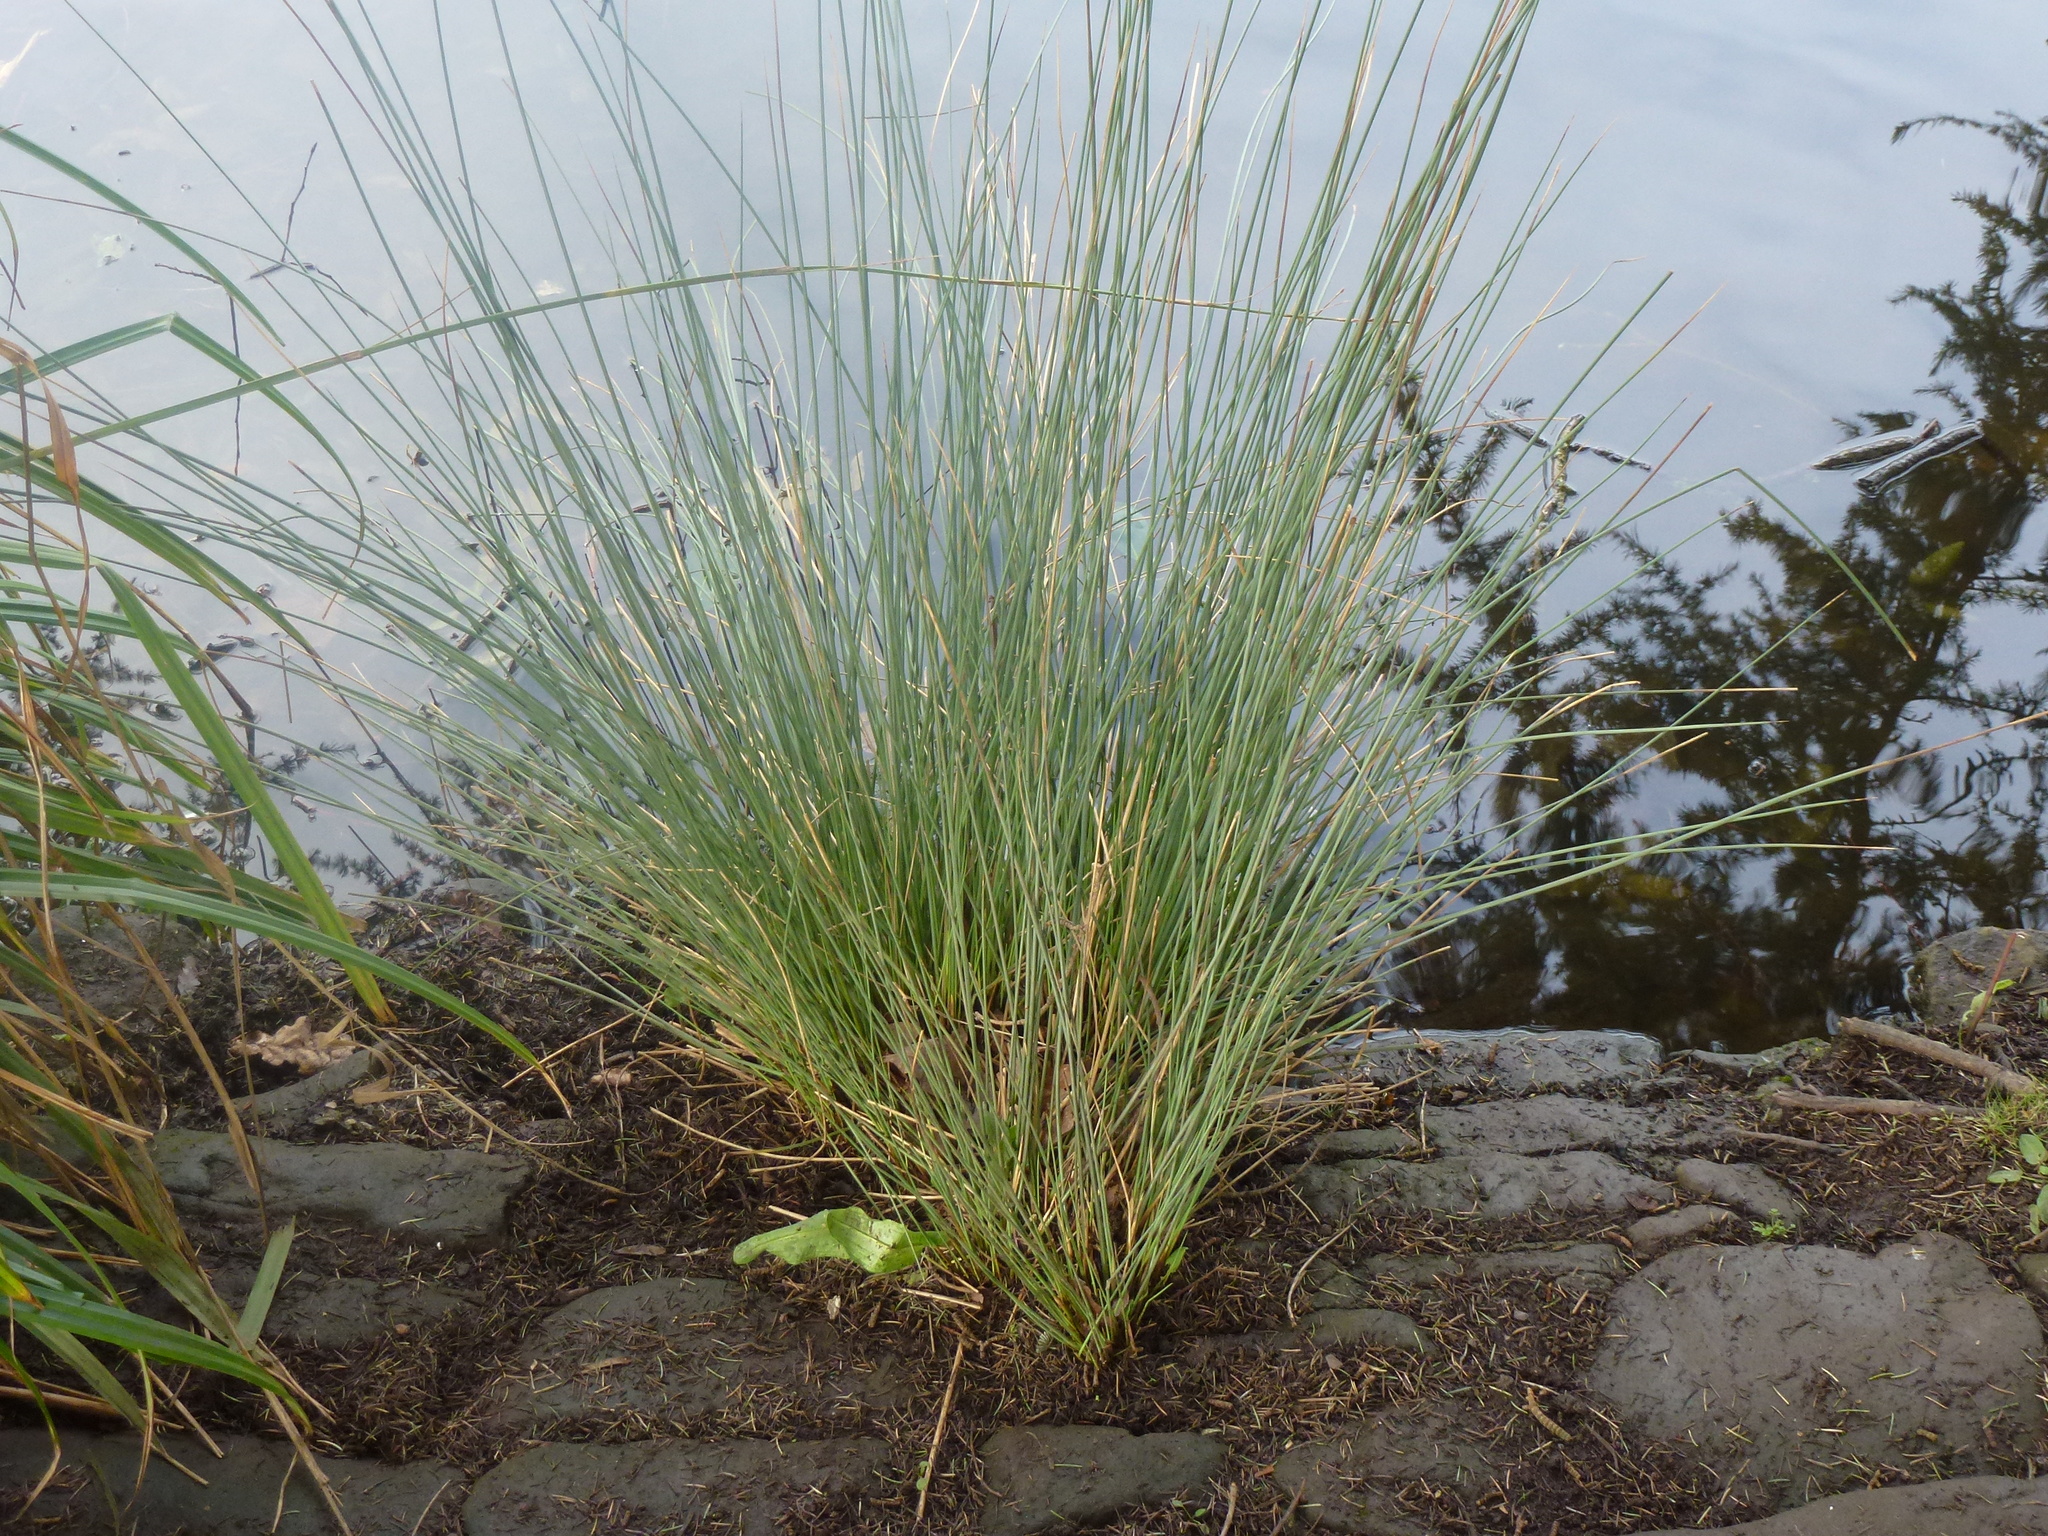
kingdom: Plantae
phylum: Tracheophyta
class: Liliopsida
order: Poales
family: Juncaceae
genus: Juncus
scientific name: Juncus inflexus
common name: Hard rush
